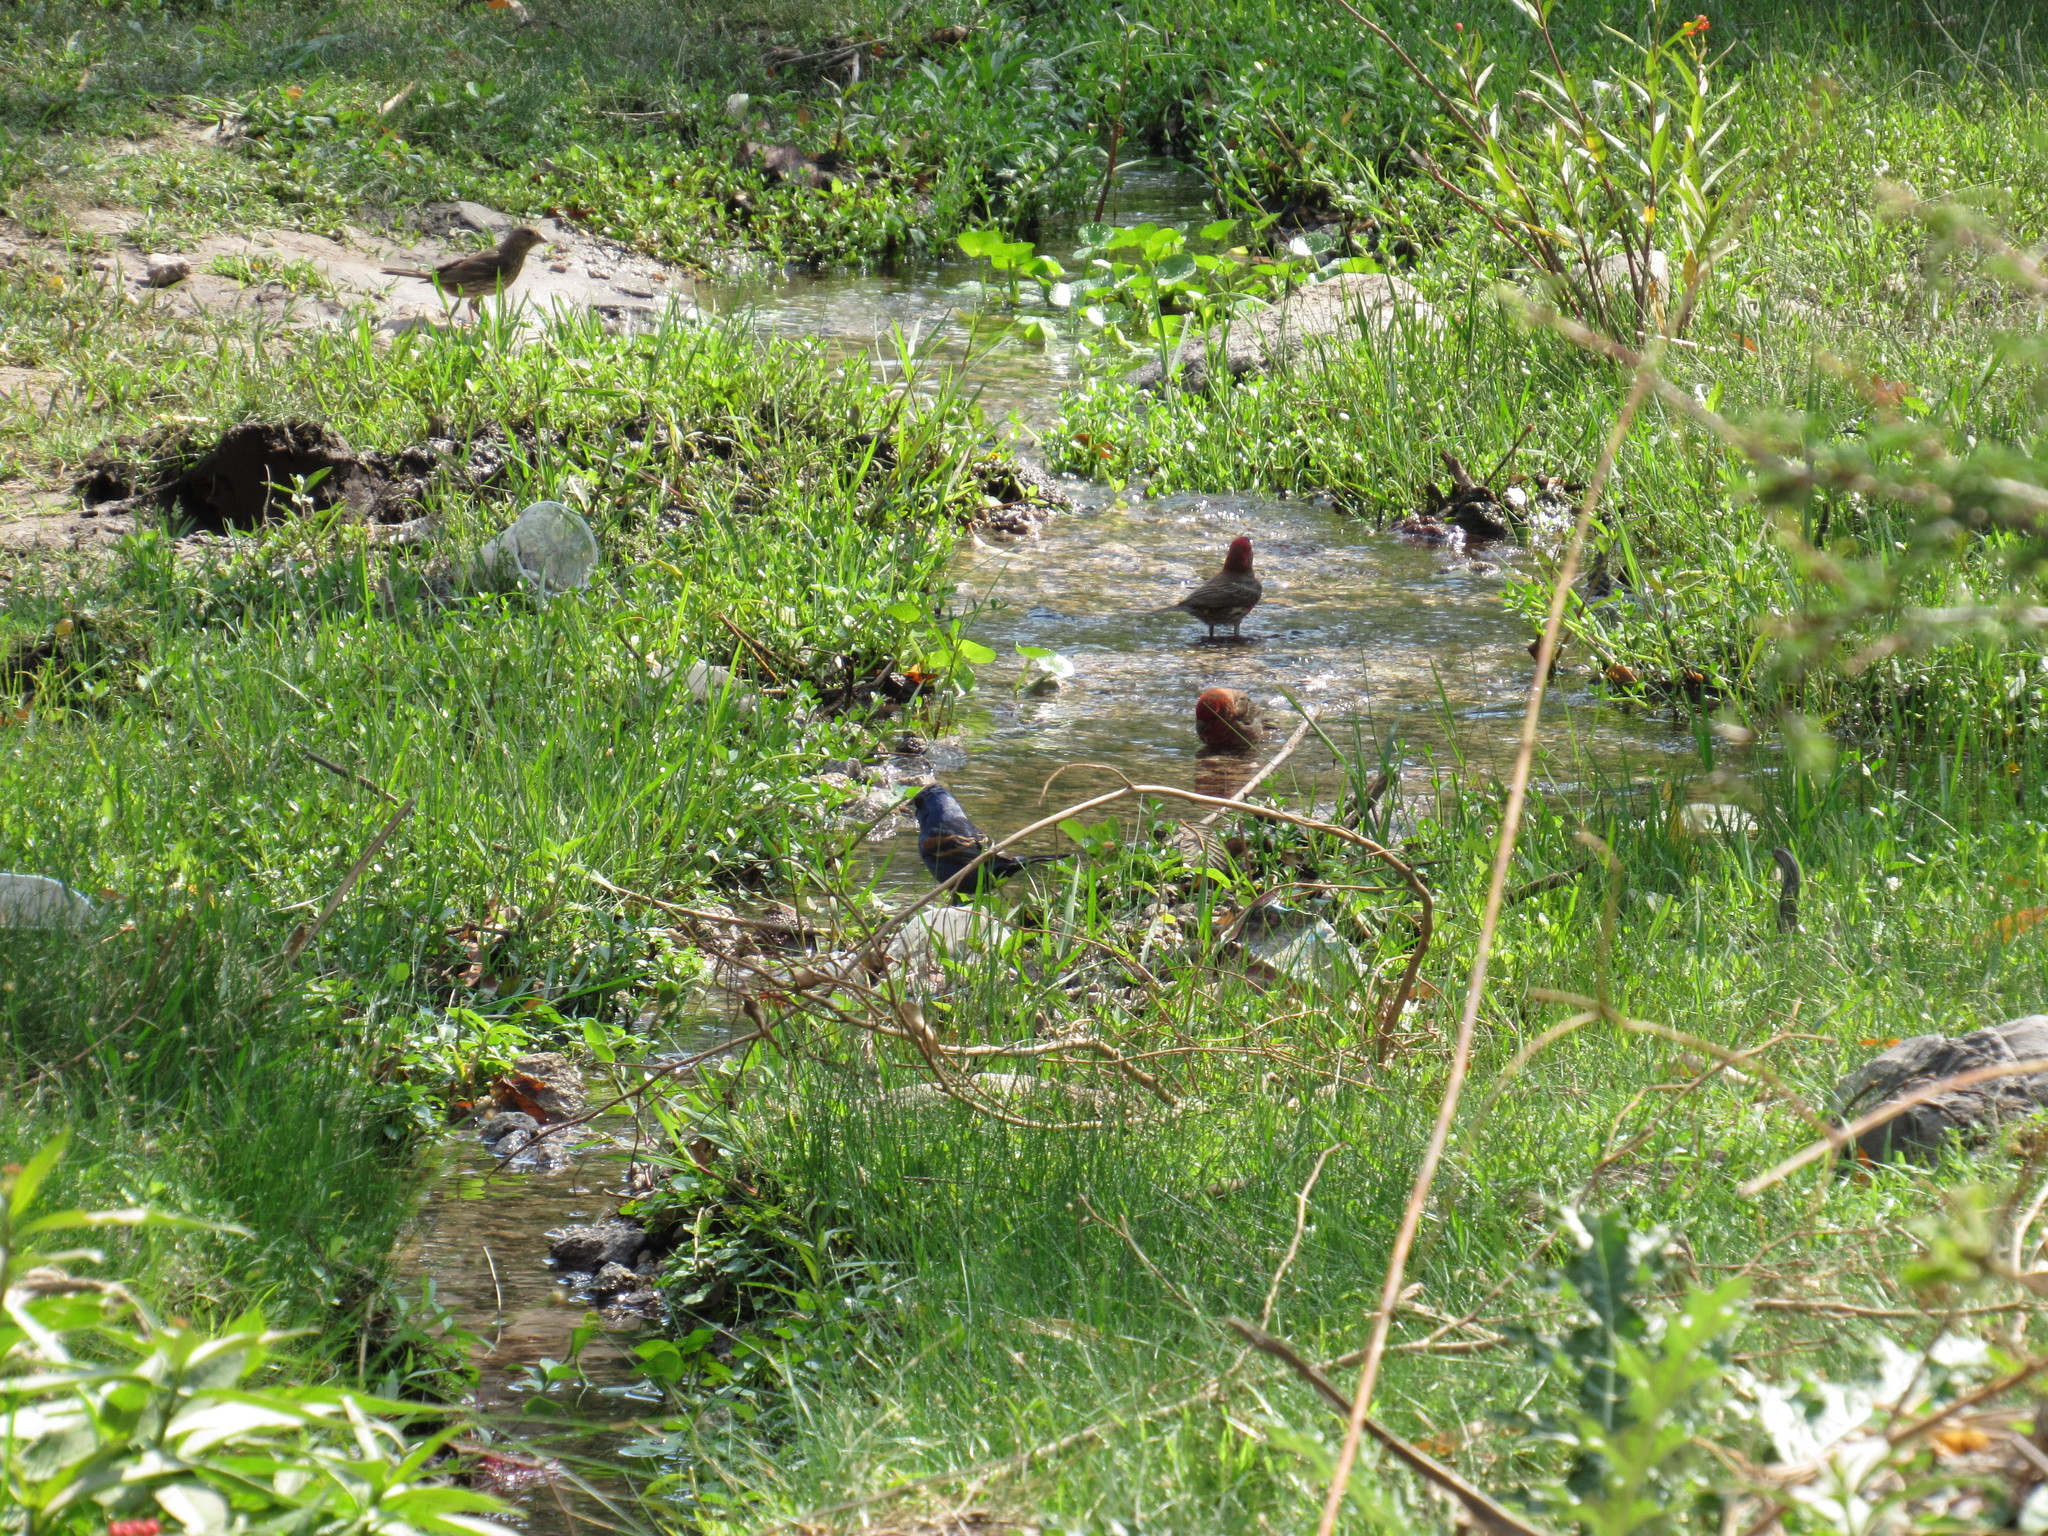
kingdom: Animalia
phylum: Chordata
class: Aves
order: Passeriformes
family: Fringillidae
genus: Haemorhous
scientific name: Haemorhous mexicanus
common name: House finch
